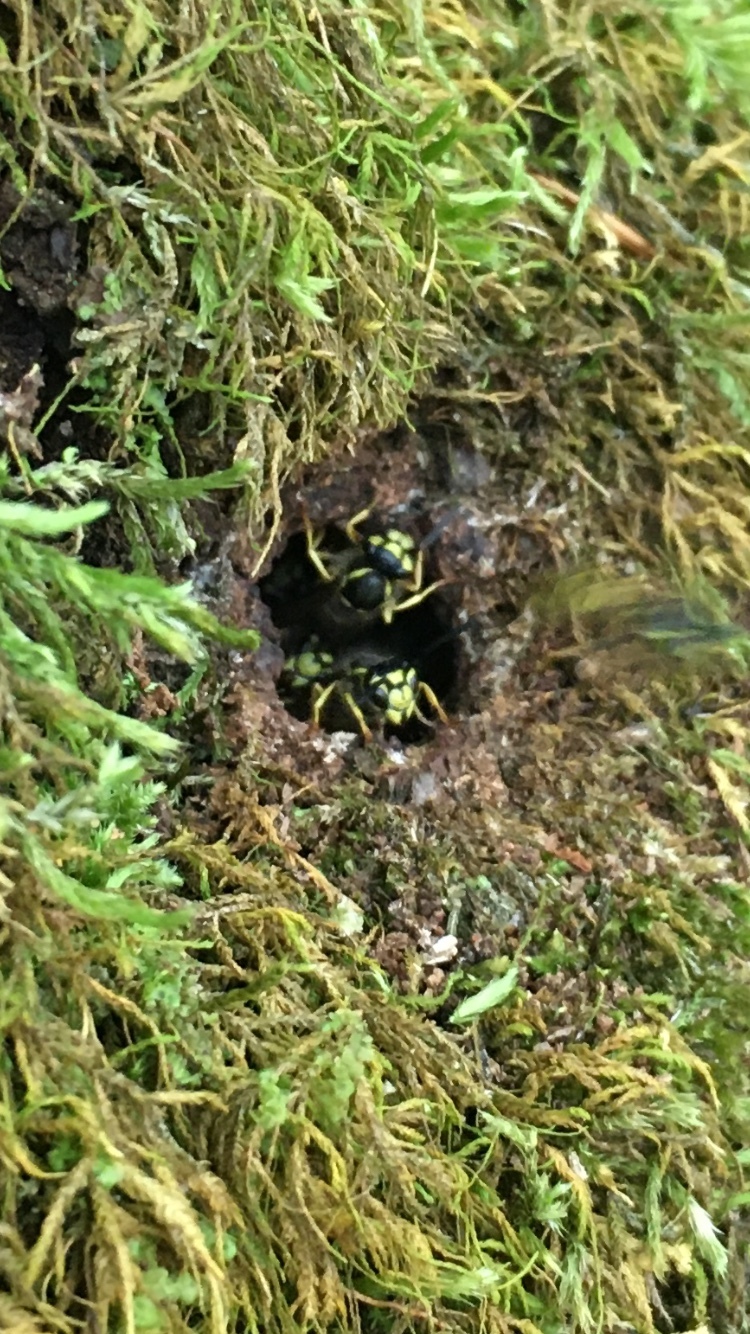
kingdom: Animalia
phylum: Arthropoda
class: Insecta
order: Hymenoptera
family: Vespidae
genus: Vespula
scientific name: Vespula
